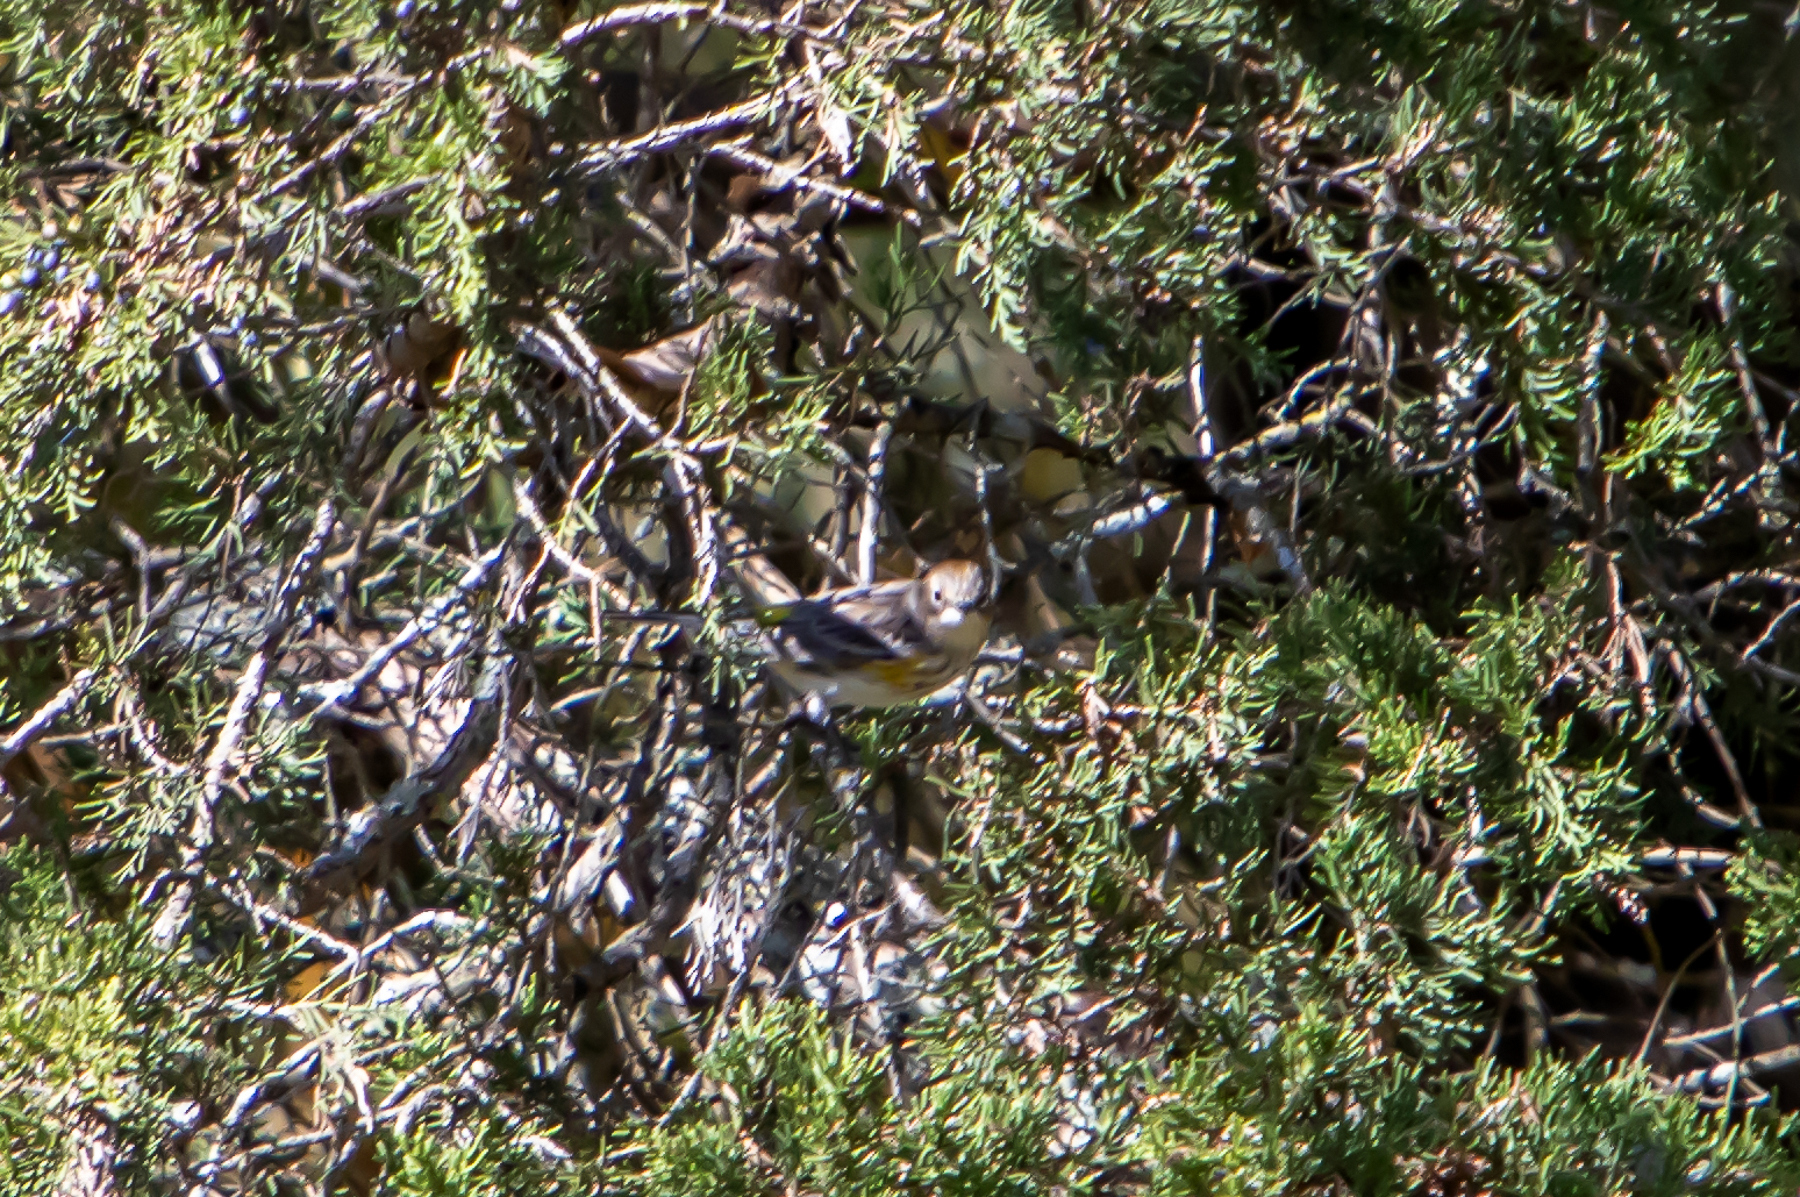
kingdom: Animalia
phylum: Chordata
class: Aves
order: Passeriformes
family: Parulidae
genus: Setophaga
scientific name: Setophaga coronata
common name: Myrtle warbler
